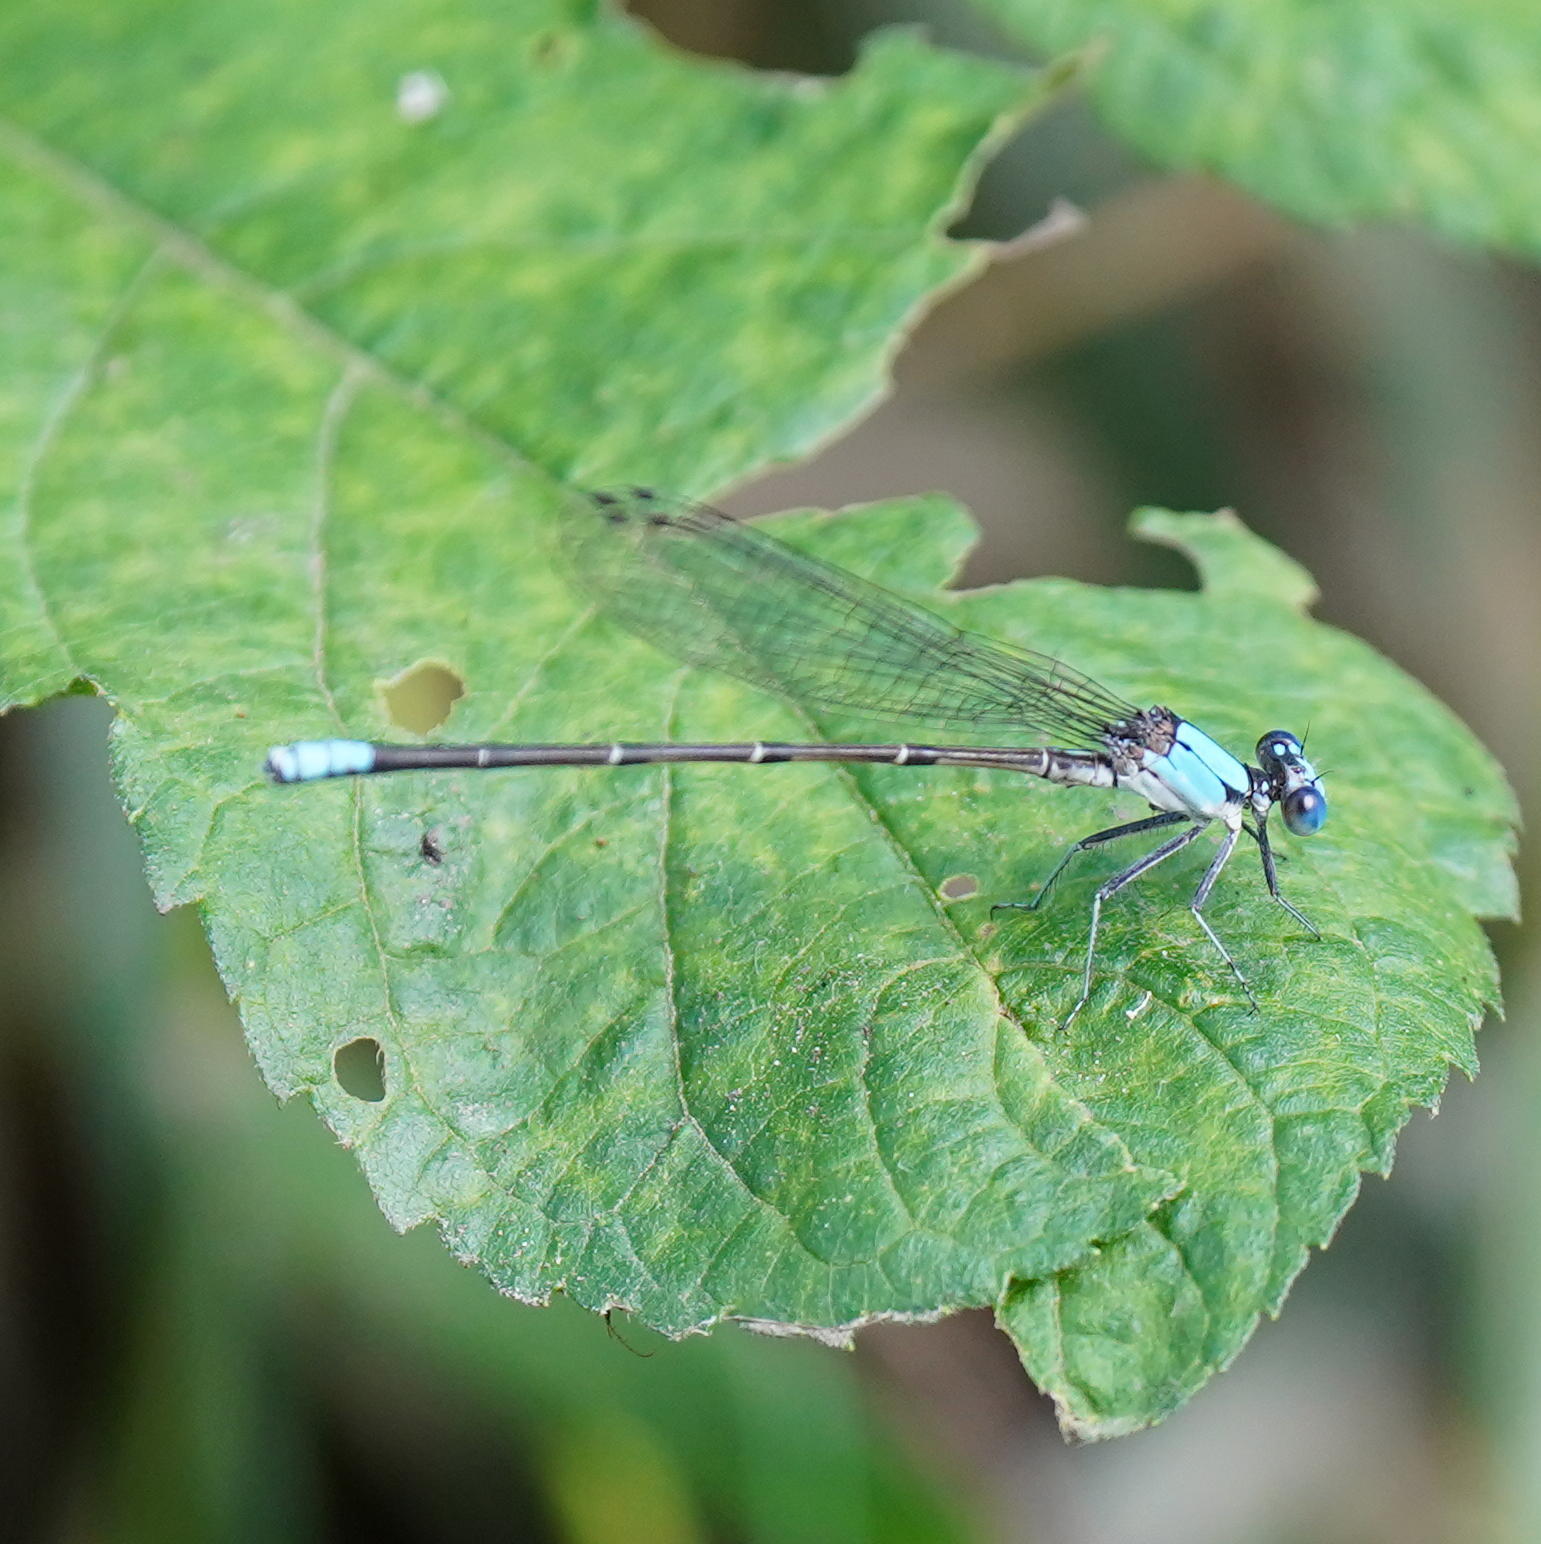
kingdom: Animalia
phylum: Arthropoda
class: Insecta
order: Odonata
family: Coenagrionidae
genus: Argia
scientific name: Argia apicalis
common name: Blue-fronted dancer
